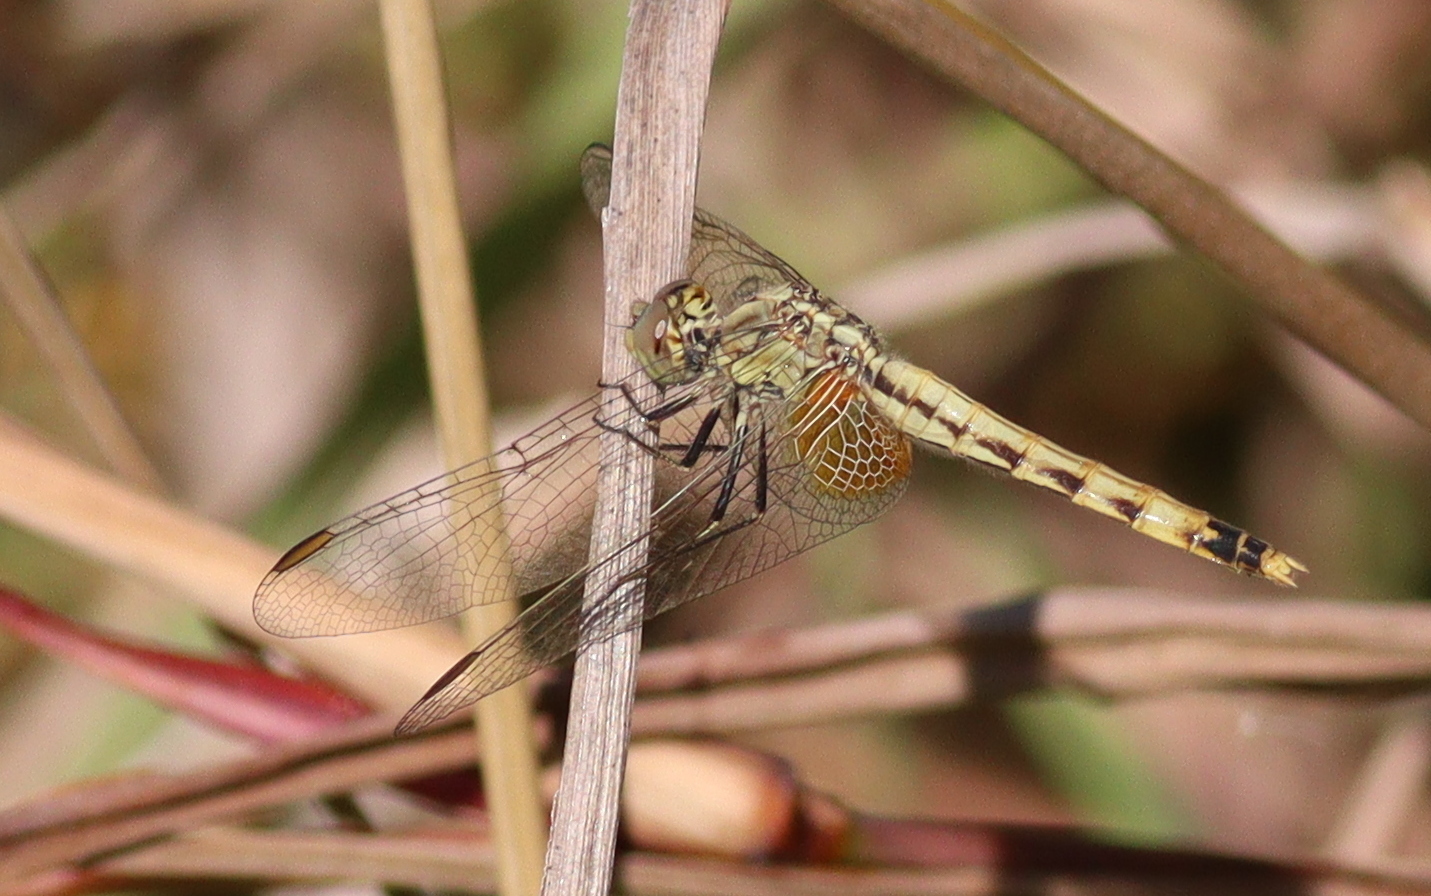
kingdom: Animalia
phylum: Arthropoda
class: Insecta
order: Odonata
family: Libellulidae
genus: Erythrodiplax
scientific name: Erythrodiplax corallina
